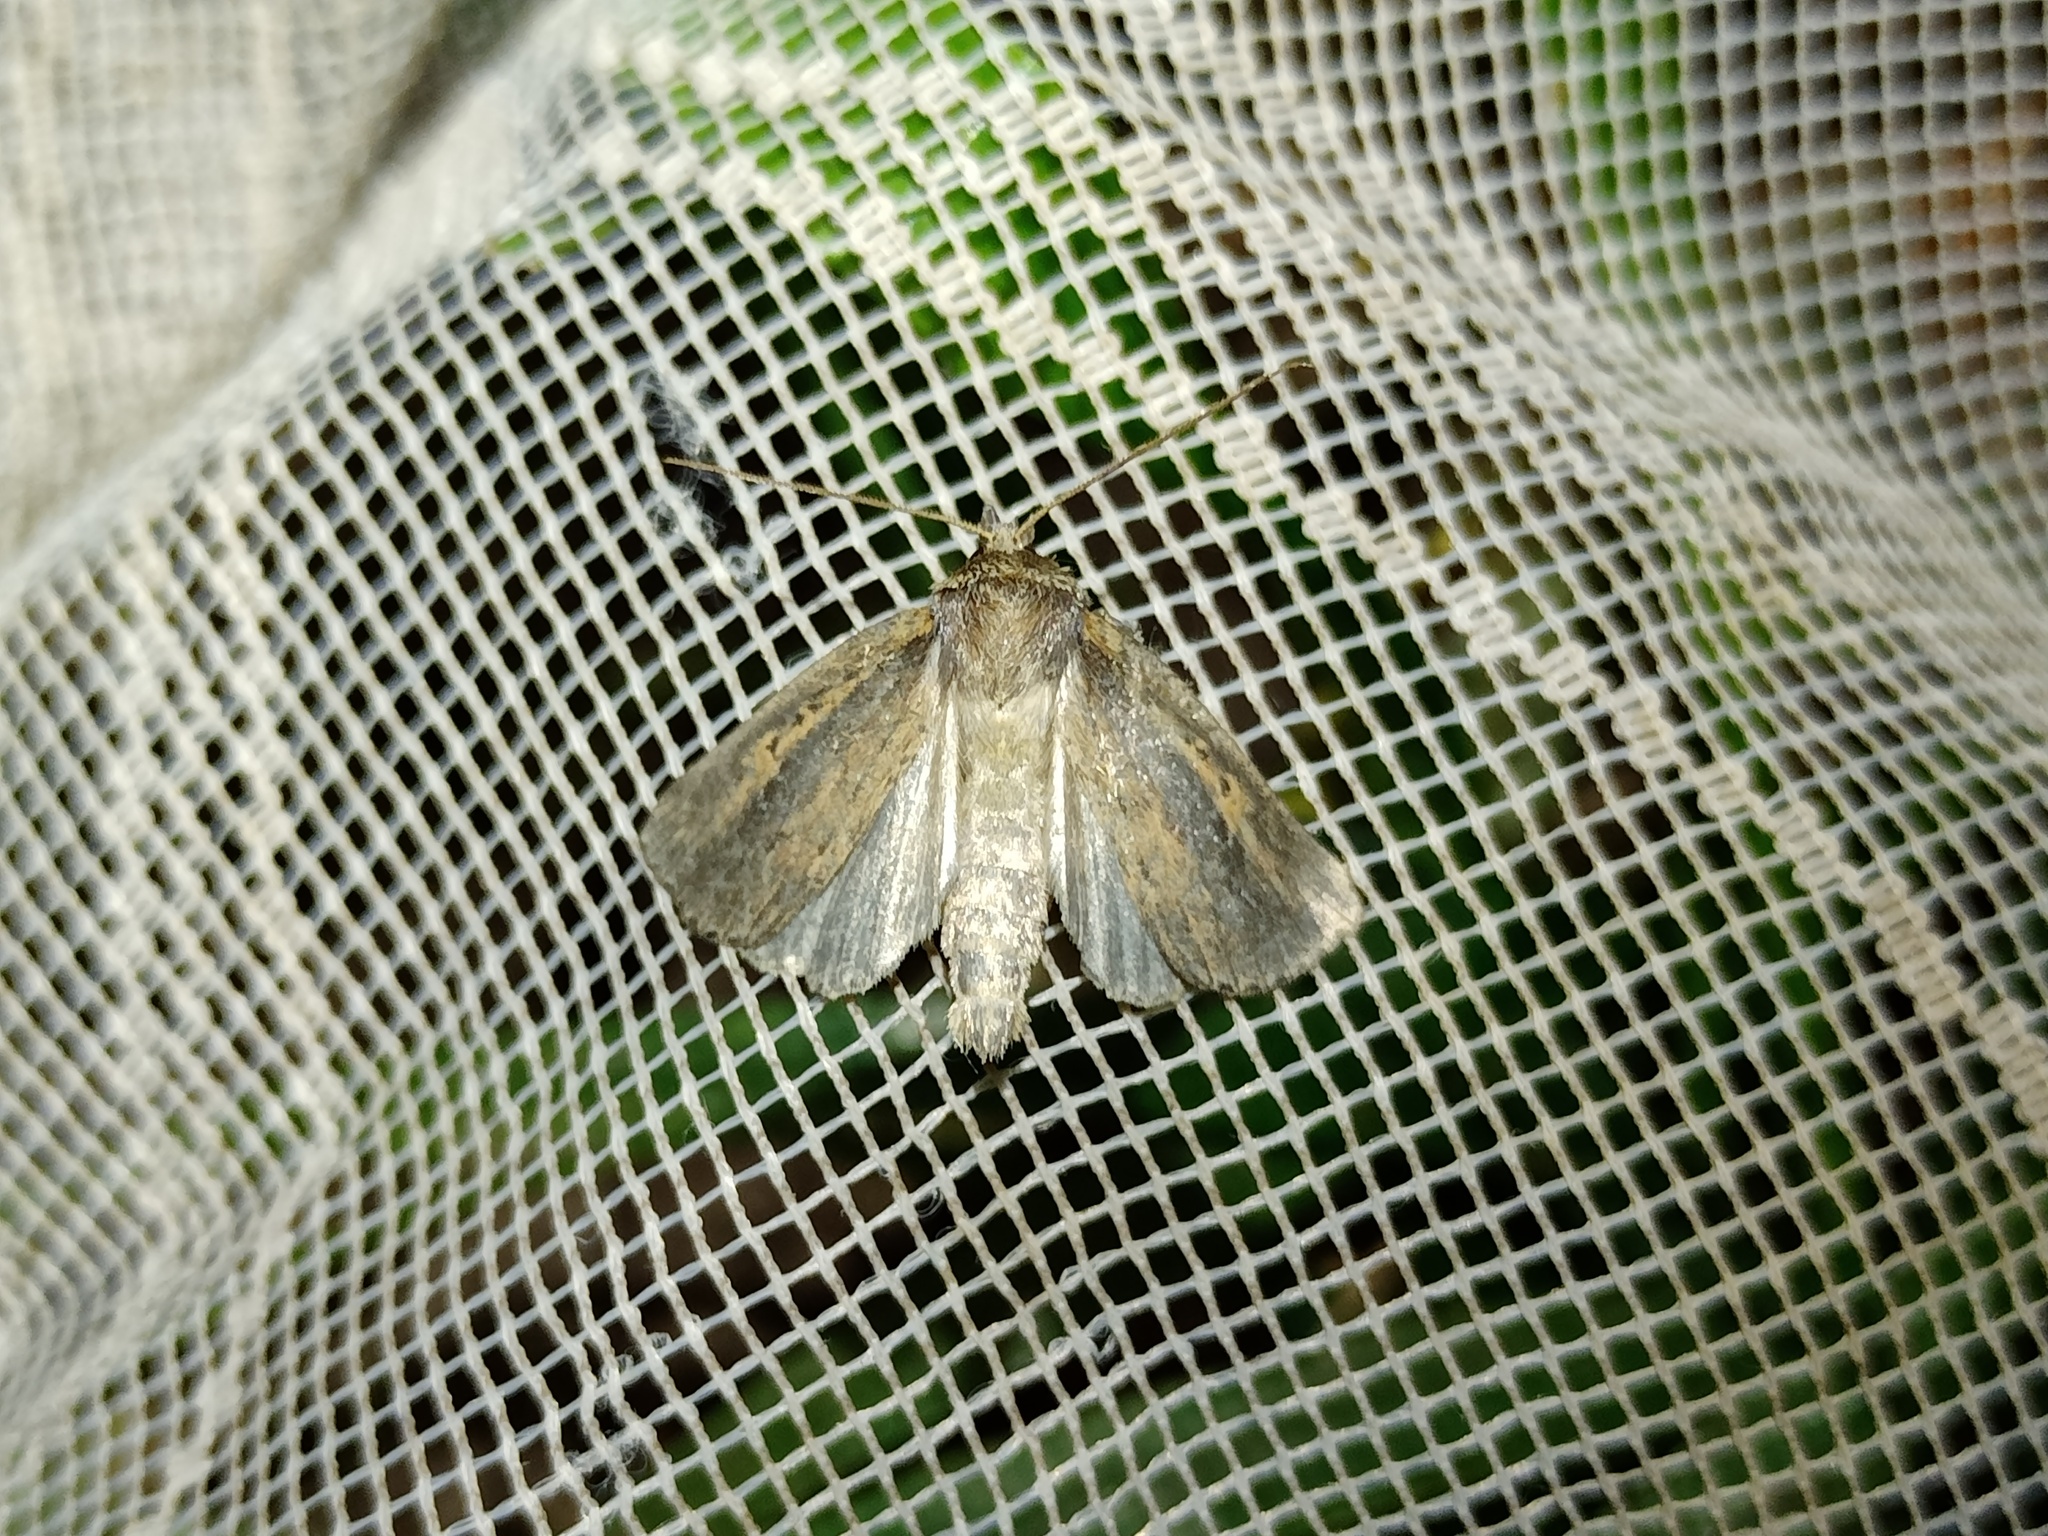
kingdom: Animalia
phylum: Arthropoda
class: Insecta
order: Lepidoptera
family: Noctuidae
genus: Archanara
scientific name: Archanara dissoluta
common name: Brown-veined wainscot
